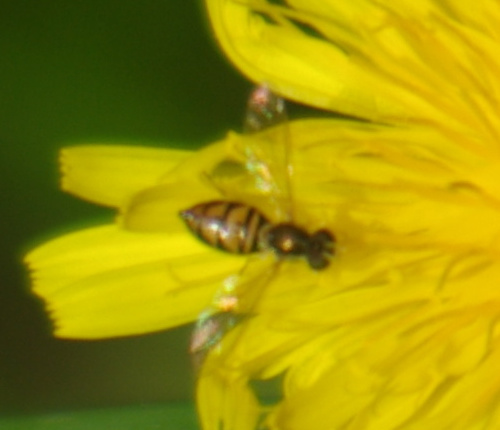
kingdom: Animalia
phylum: Arthropoda
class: Insecta
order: Diptera
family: Syrphidae
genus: Toxomerus
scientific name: Toxomerus marginatus
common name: Syrphid fly
